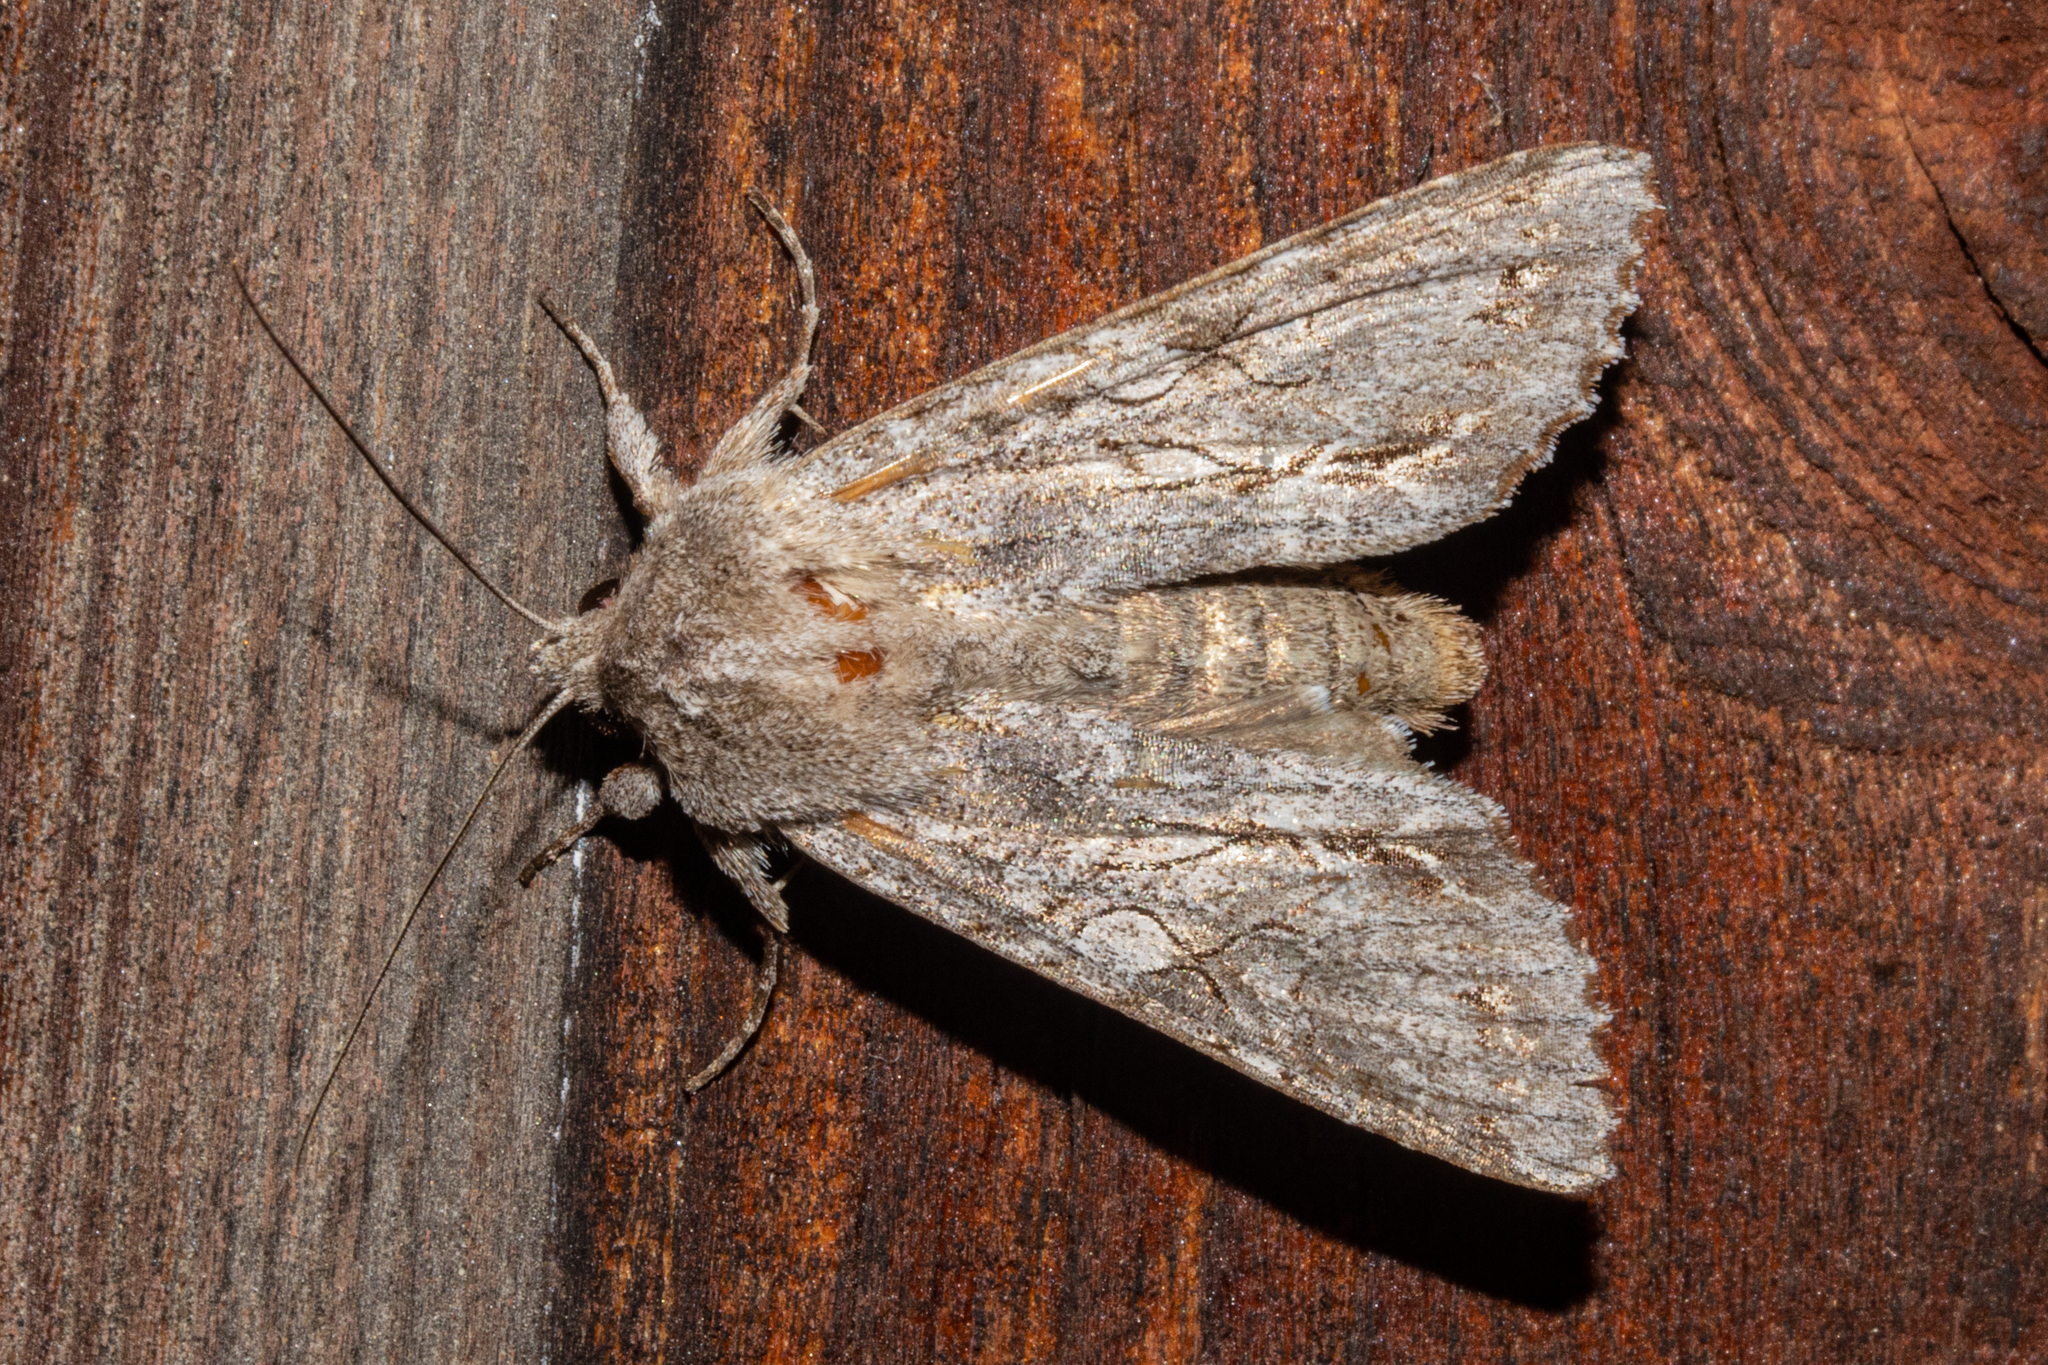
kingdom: Animalia
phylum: Arthropoda
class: Insecta
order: Lepidoptera
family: Noctuidae
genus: Ichneutica
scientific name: Ichneutica
